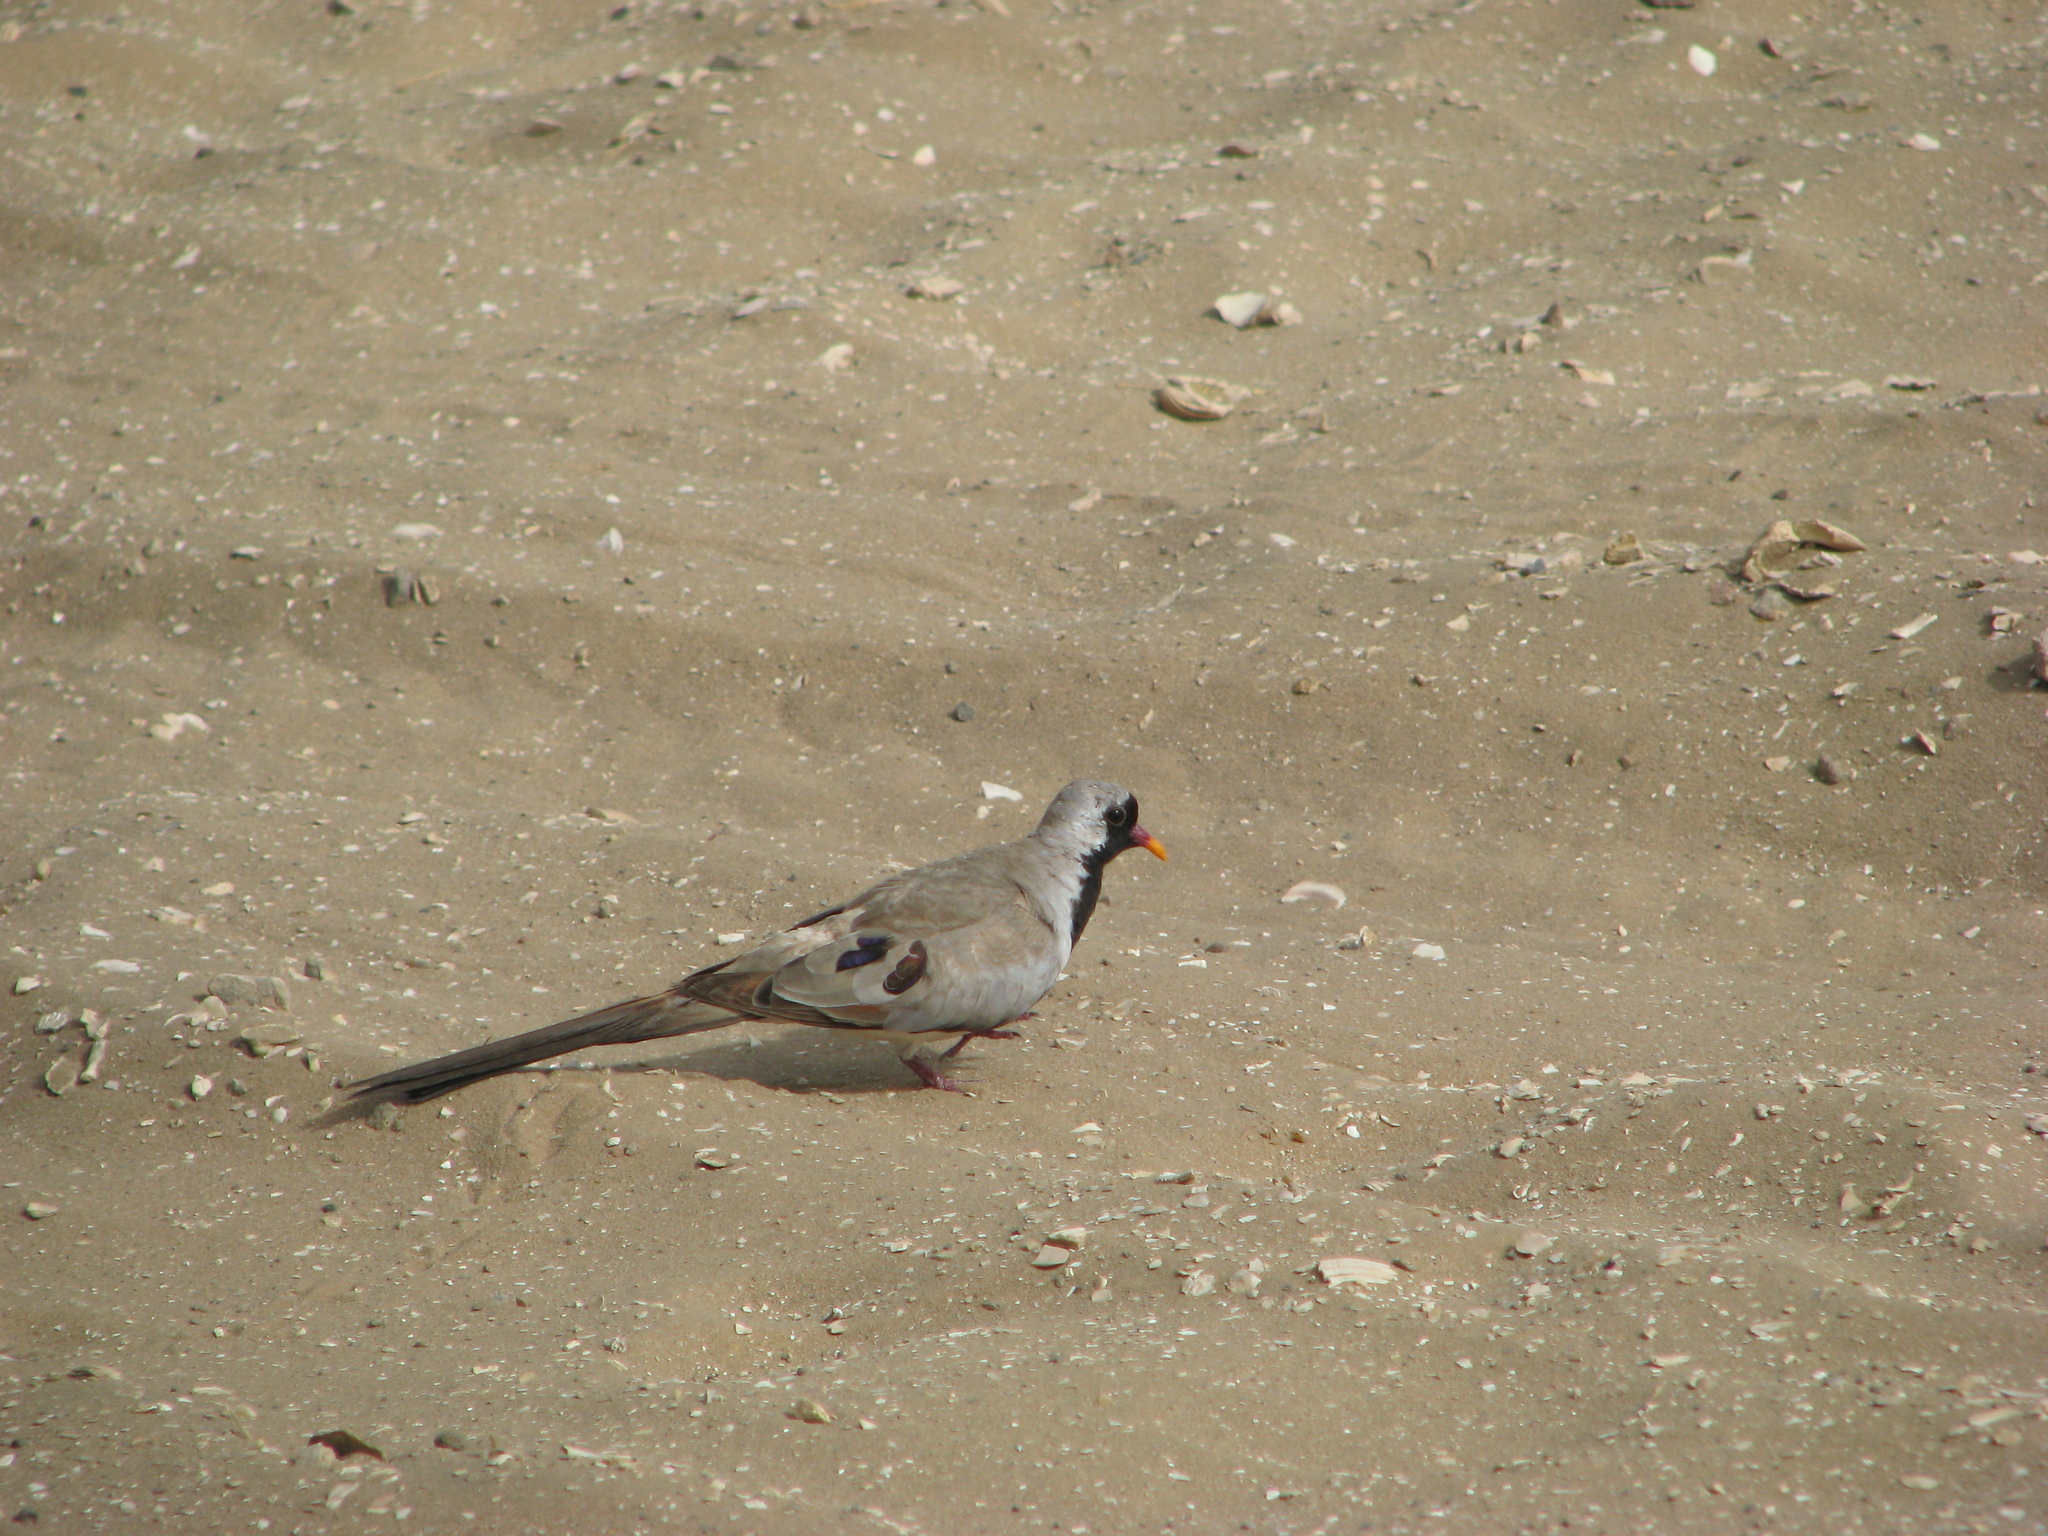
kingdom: Animalia
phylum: Chordata
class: Aves
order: Columbiformes
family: Columbidae
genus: Oena
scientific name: Oena capensis
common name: Namaqua dove
